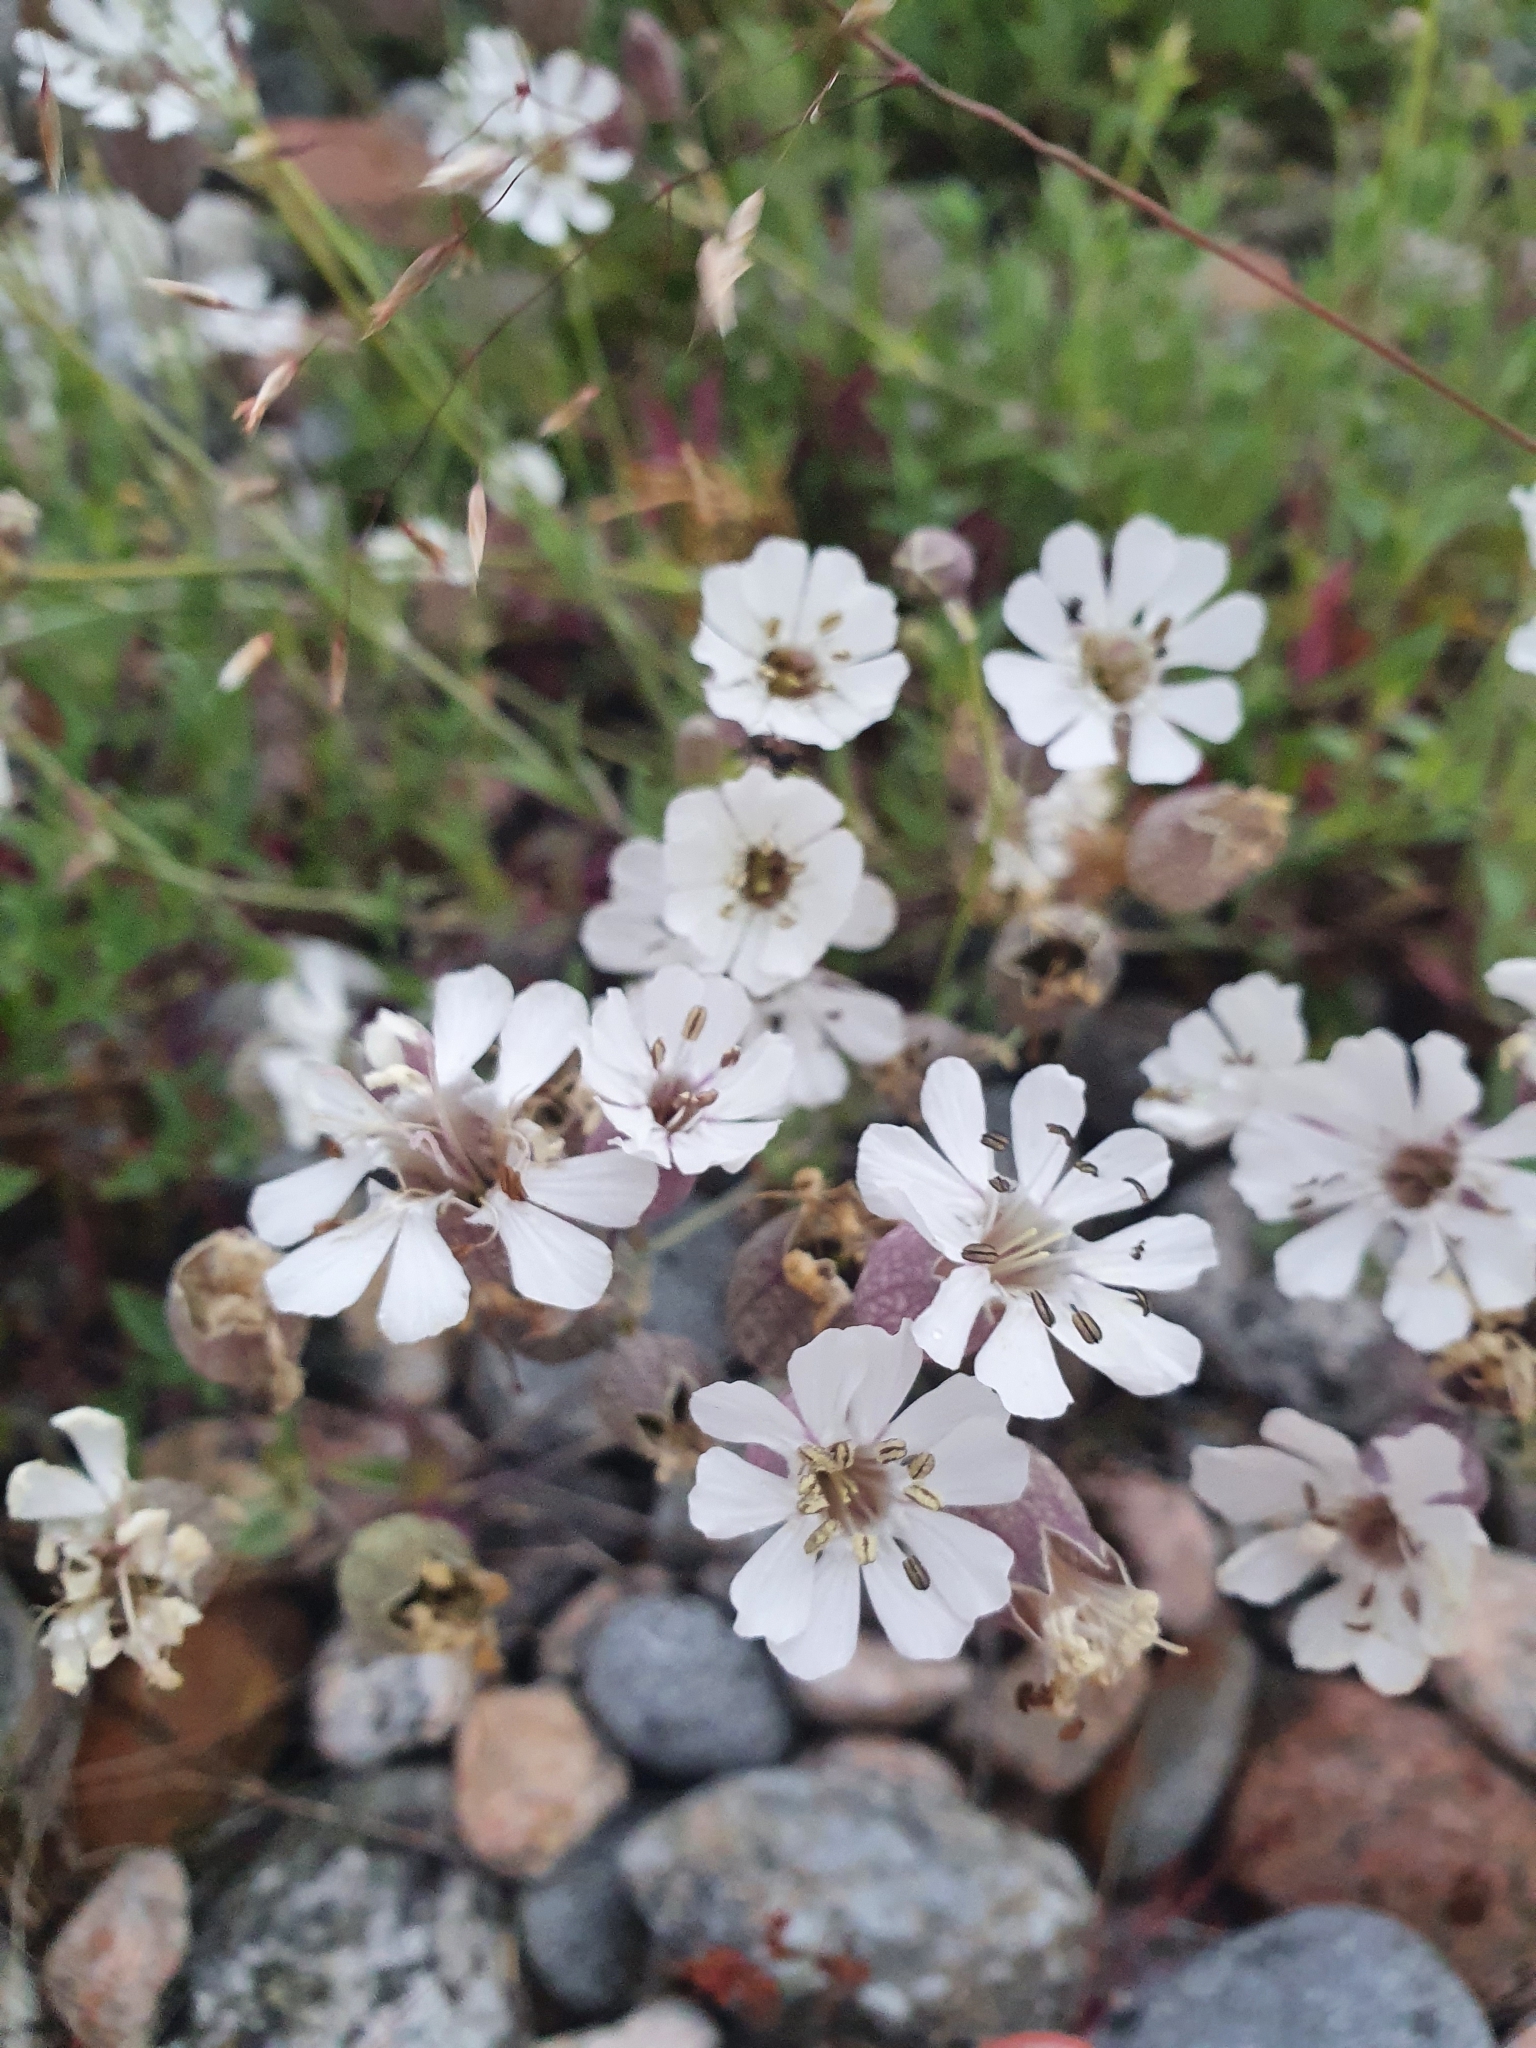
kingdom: Plantae
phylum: Tracheophyta
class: Magnoliopsida
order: Caryophyllales
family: Caryophyllaceae
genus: Silene
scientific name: Silene uniflora
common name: Sea campion
